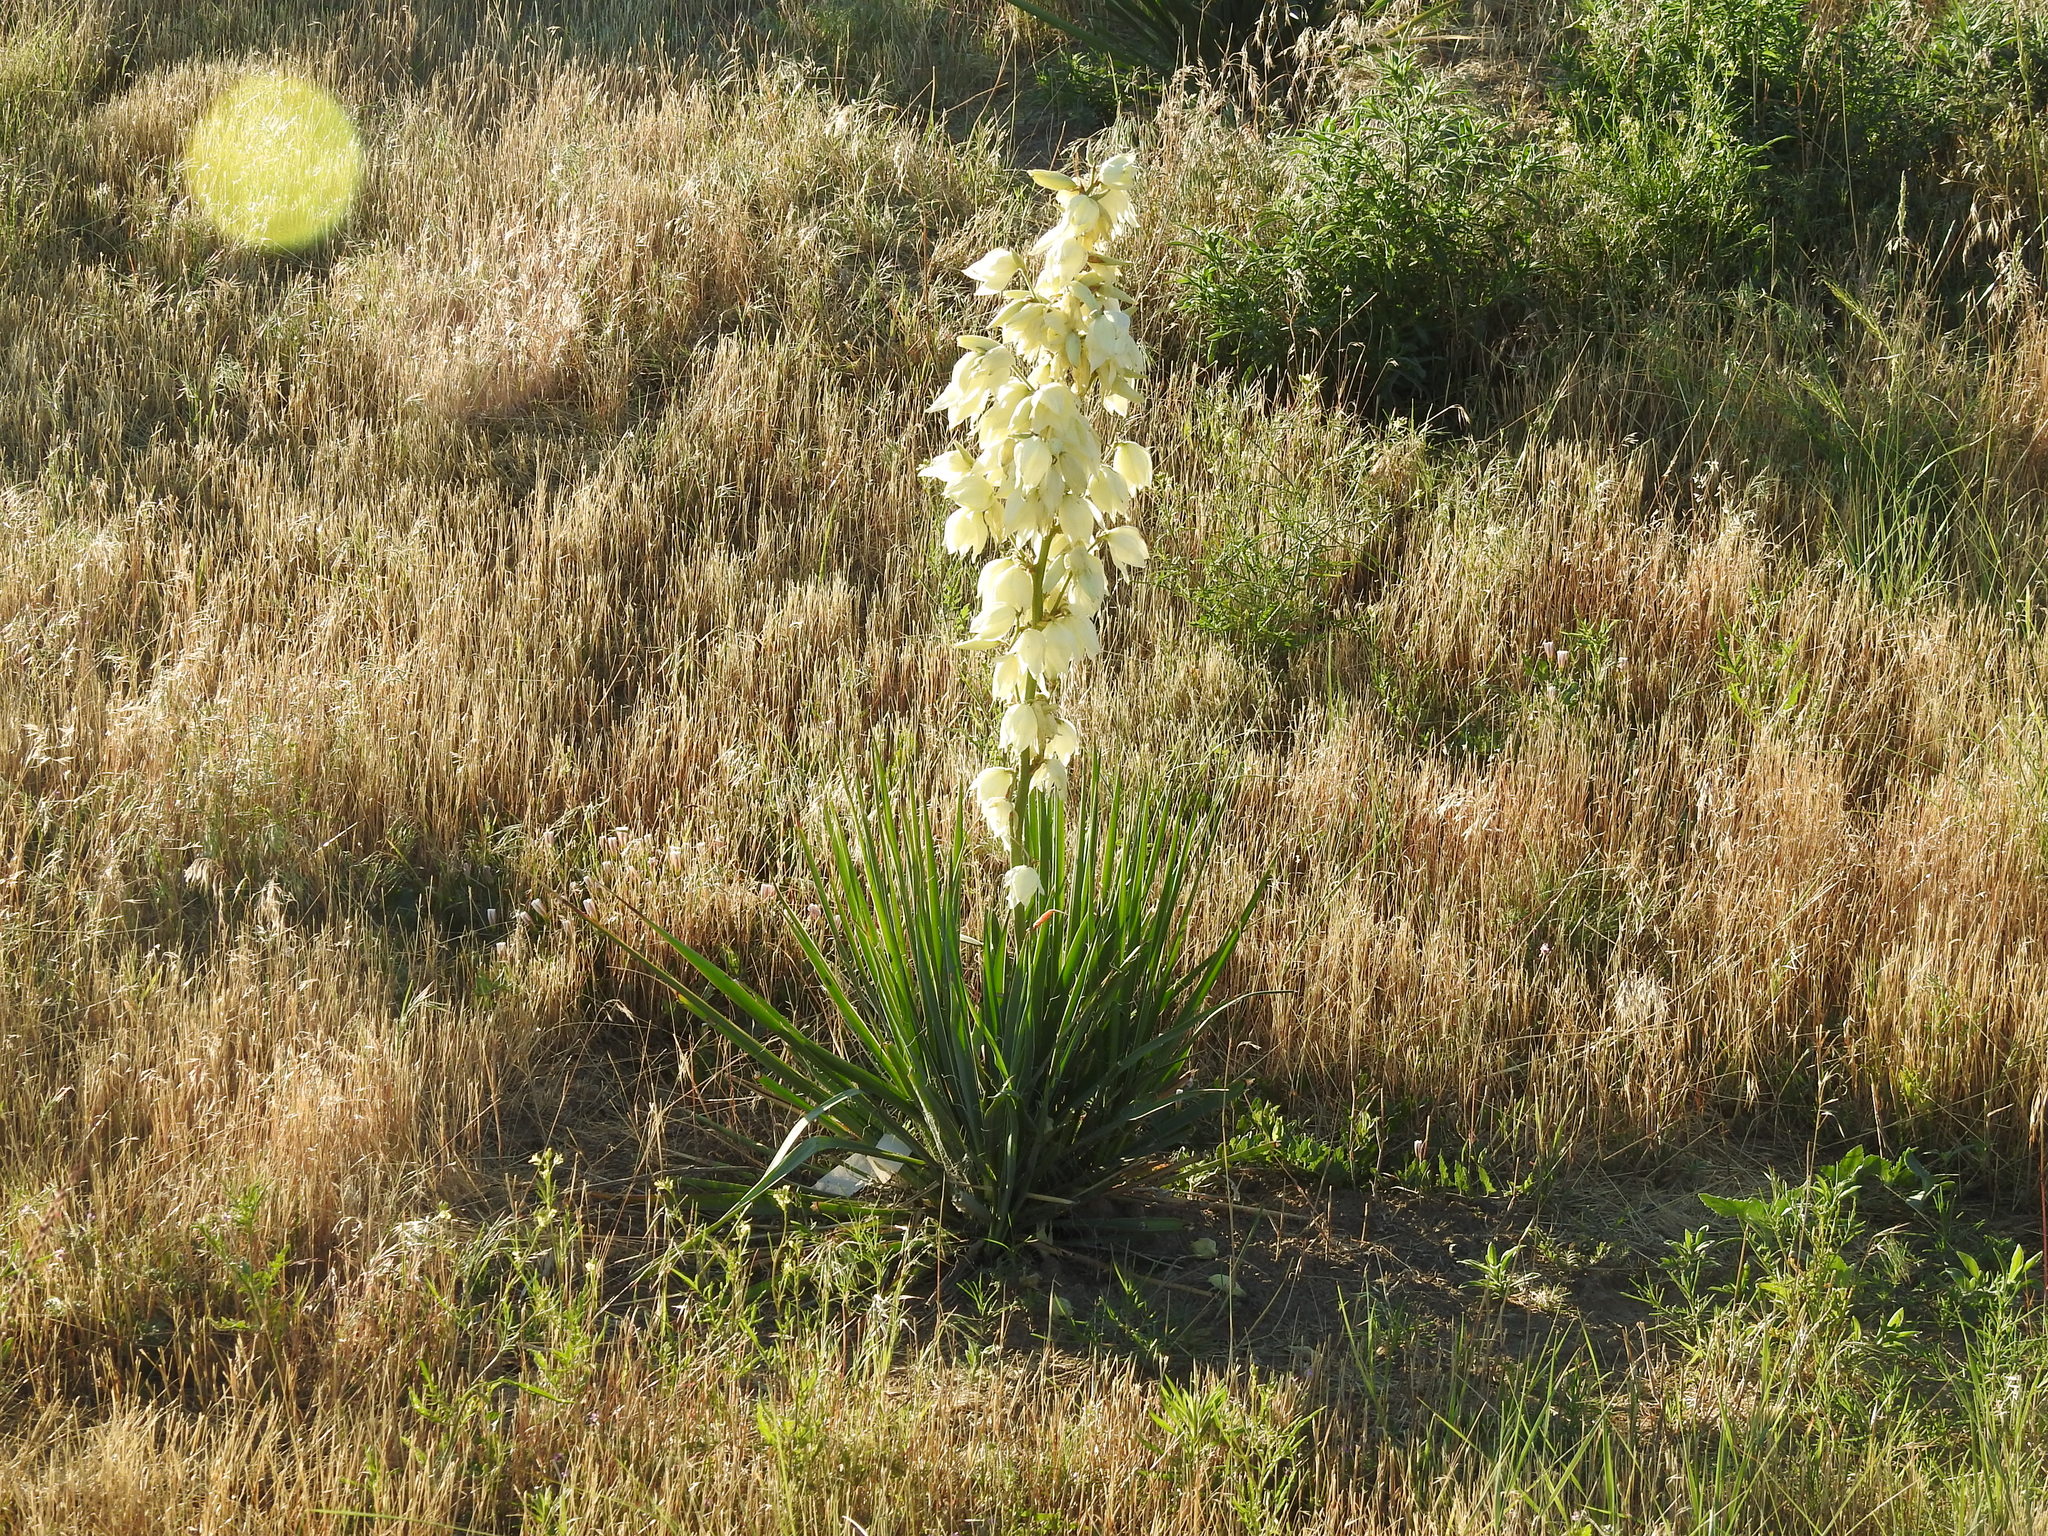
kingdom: Plantae
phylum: Tracheophyta
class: Liliopsida
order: Asparagales
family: Asparagaceae
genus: Yucca
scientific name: Yucca glauca
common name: Great plains yucca
